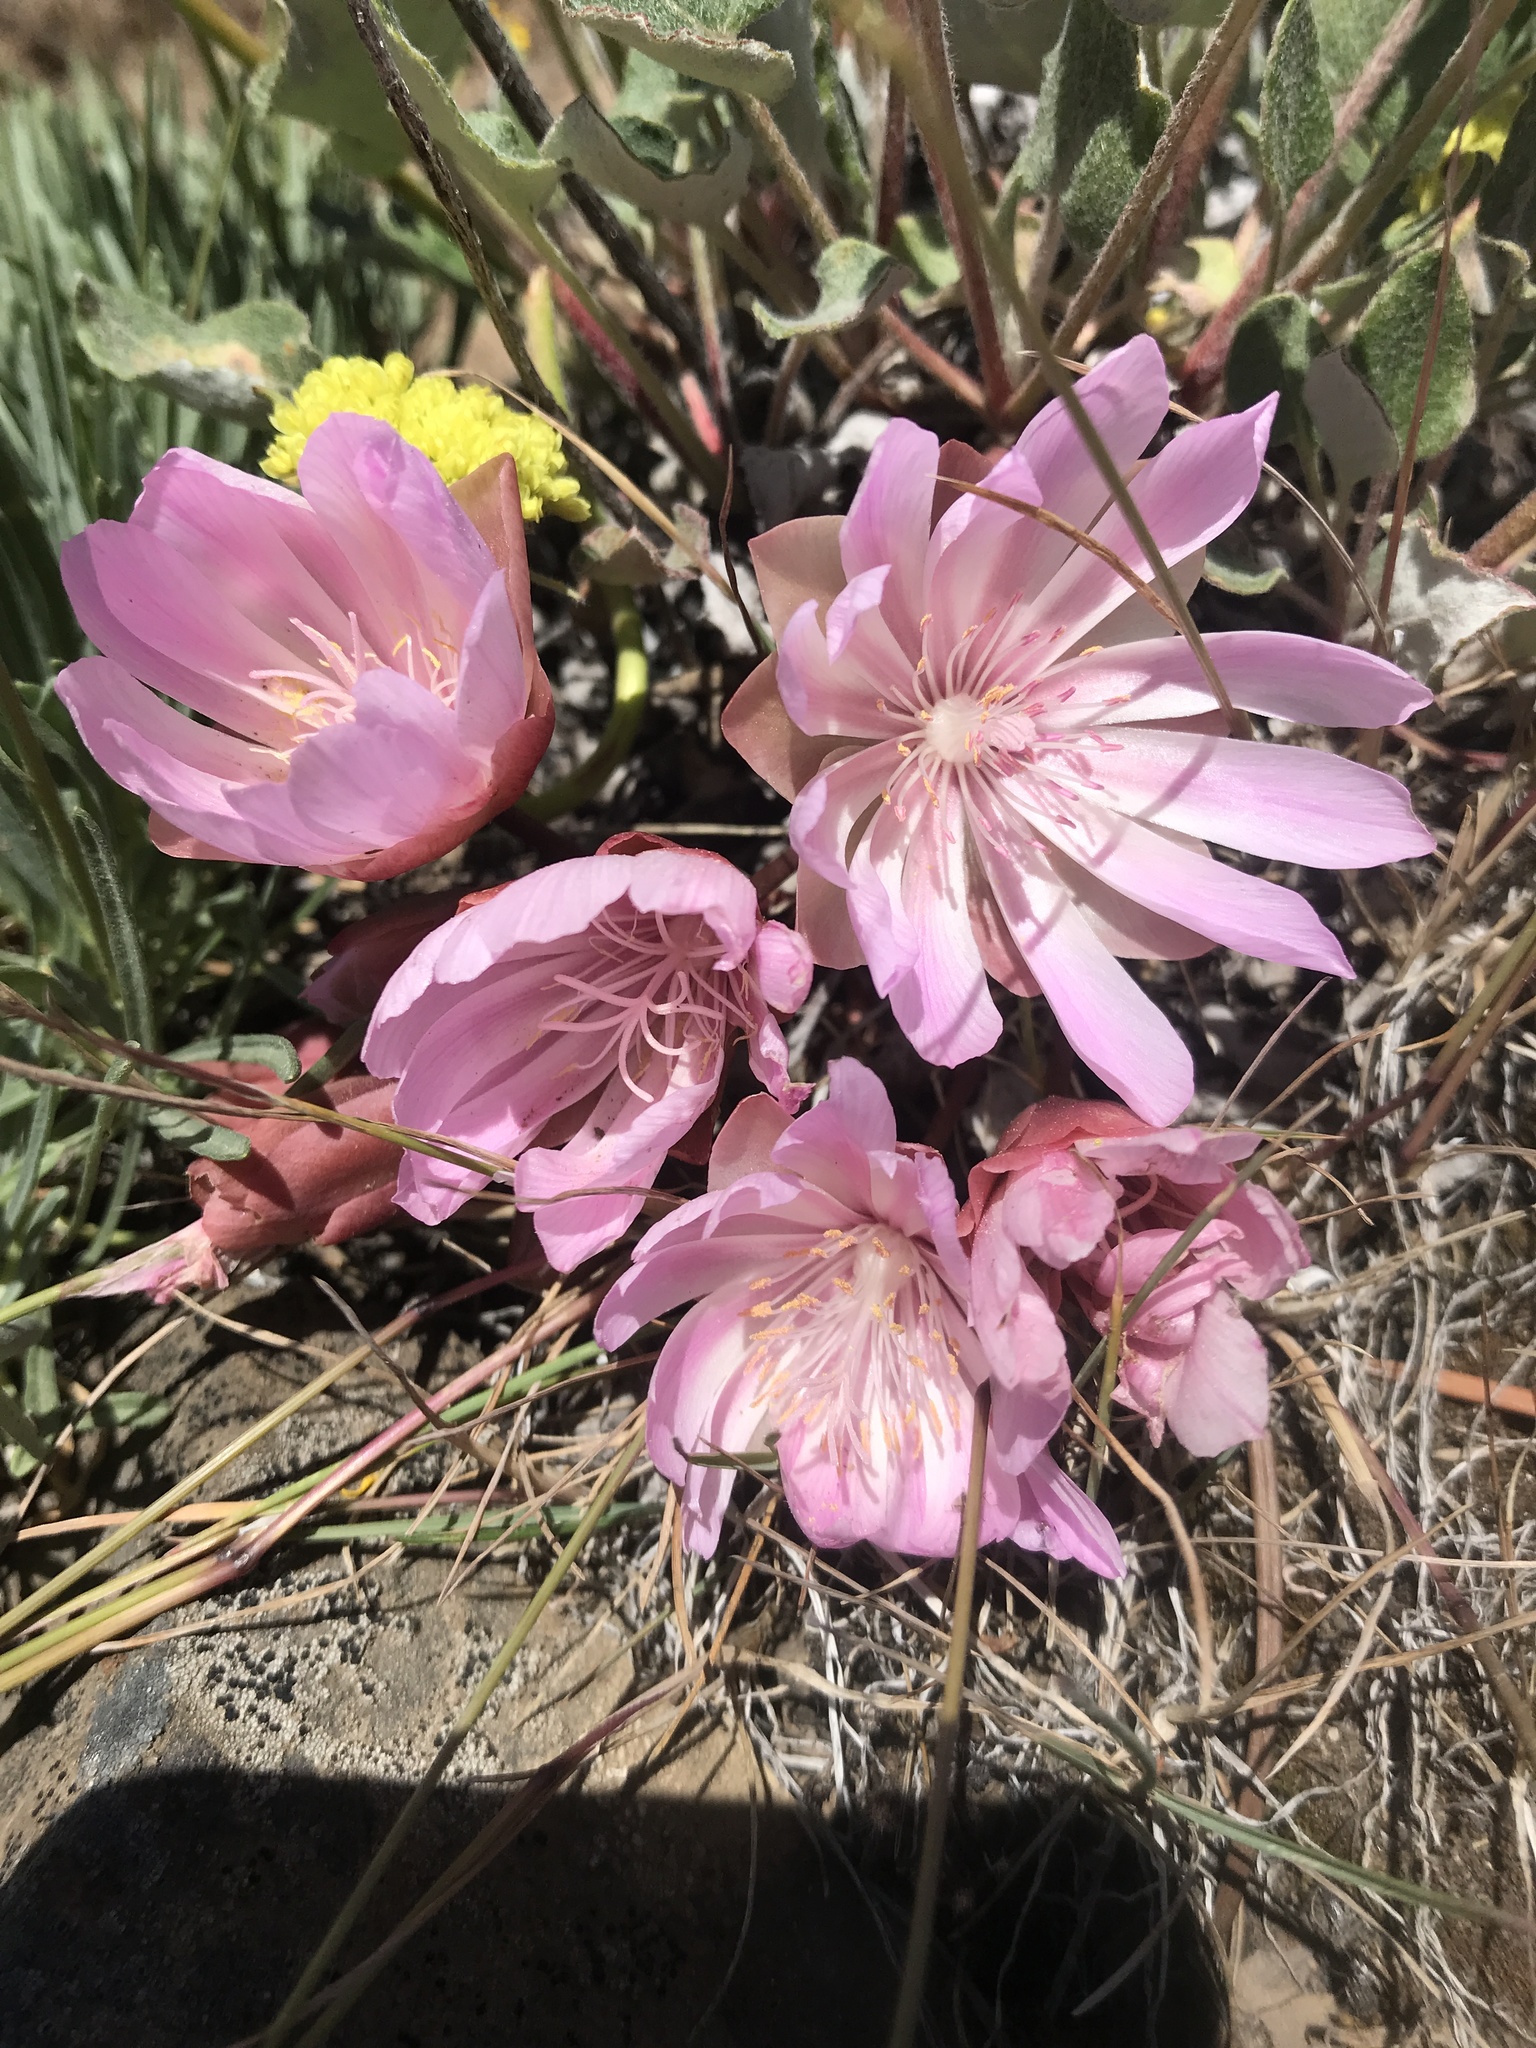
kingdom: Plantae
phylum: Tracheophyta
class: Magnoliopsida
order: Caryophyllales
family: Montiaceae
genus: Lewisia
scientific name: Lewisia rediviva
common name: Bitter-root
